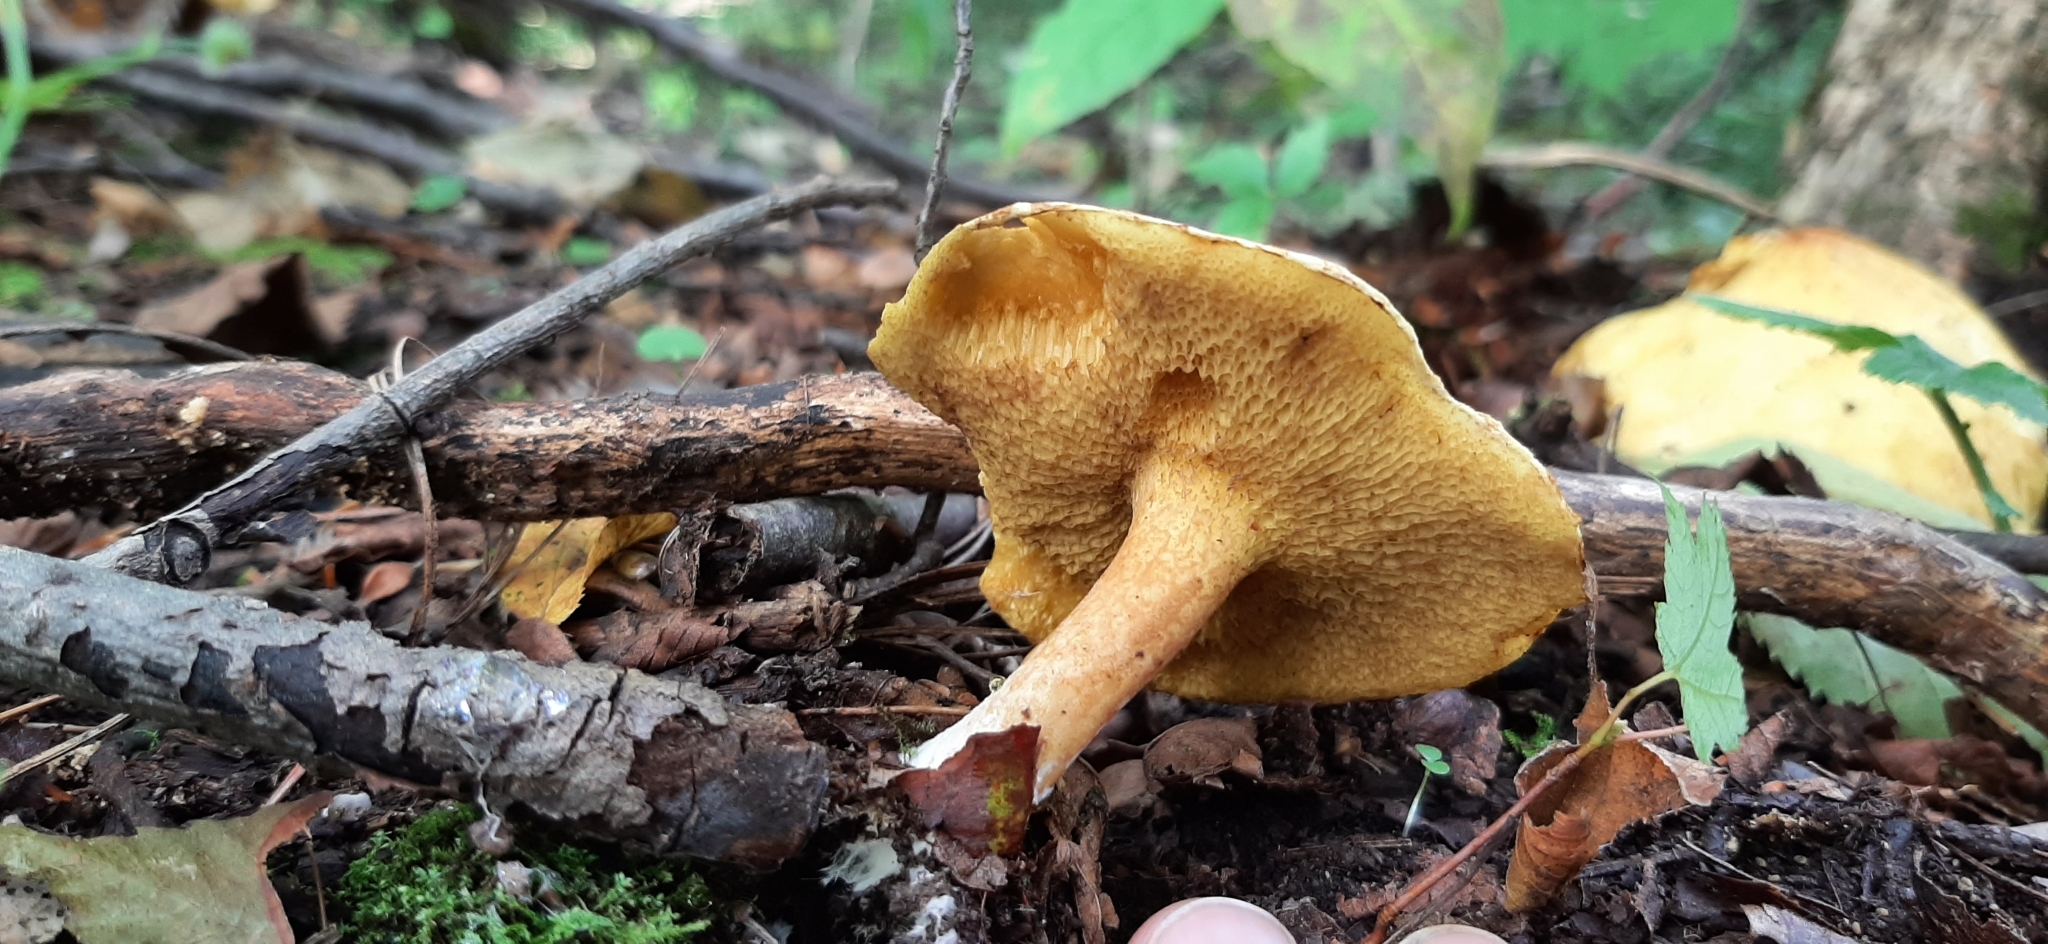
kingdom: Fungi
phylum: Basidiomycota
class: Agaricomycetes
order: Boletales
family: Suillaceae
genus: Suillus
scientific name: Suillus americanus
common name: Chicken fat mushroom
